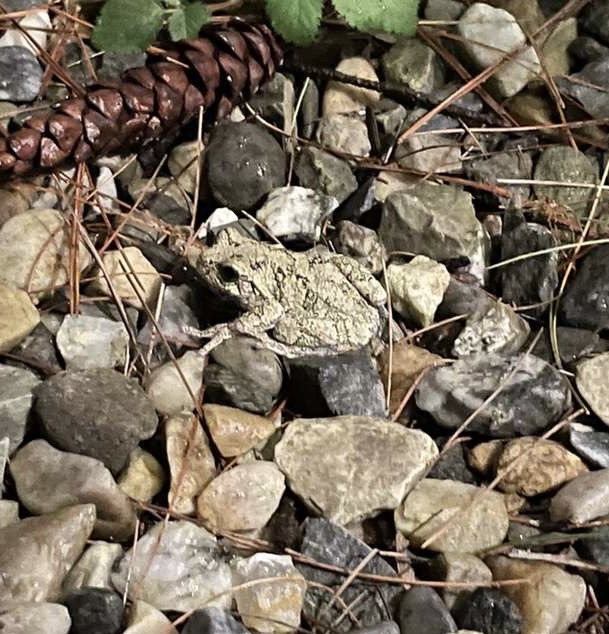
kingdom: Animalia
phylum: Chordata
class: Amphibia
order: Anura
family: Hylidae
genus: Dryophytes
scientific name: Dryophytes versicolor
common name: Gray treefrog
